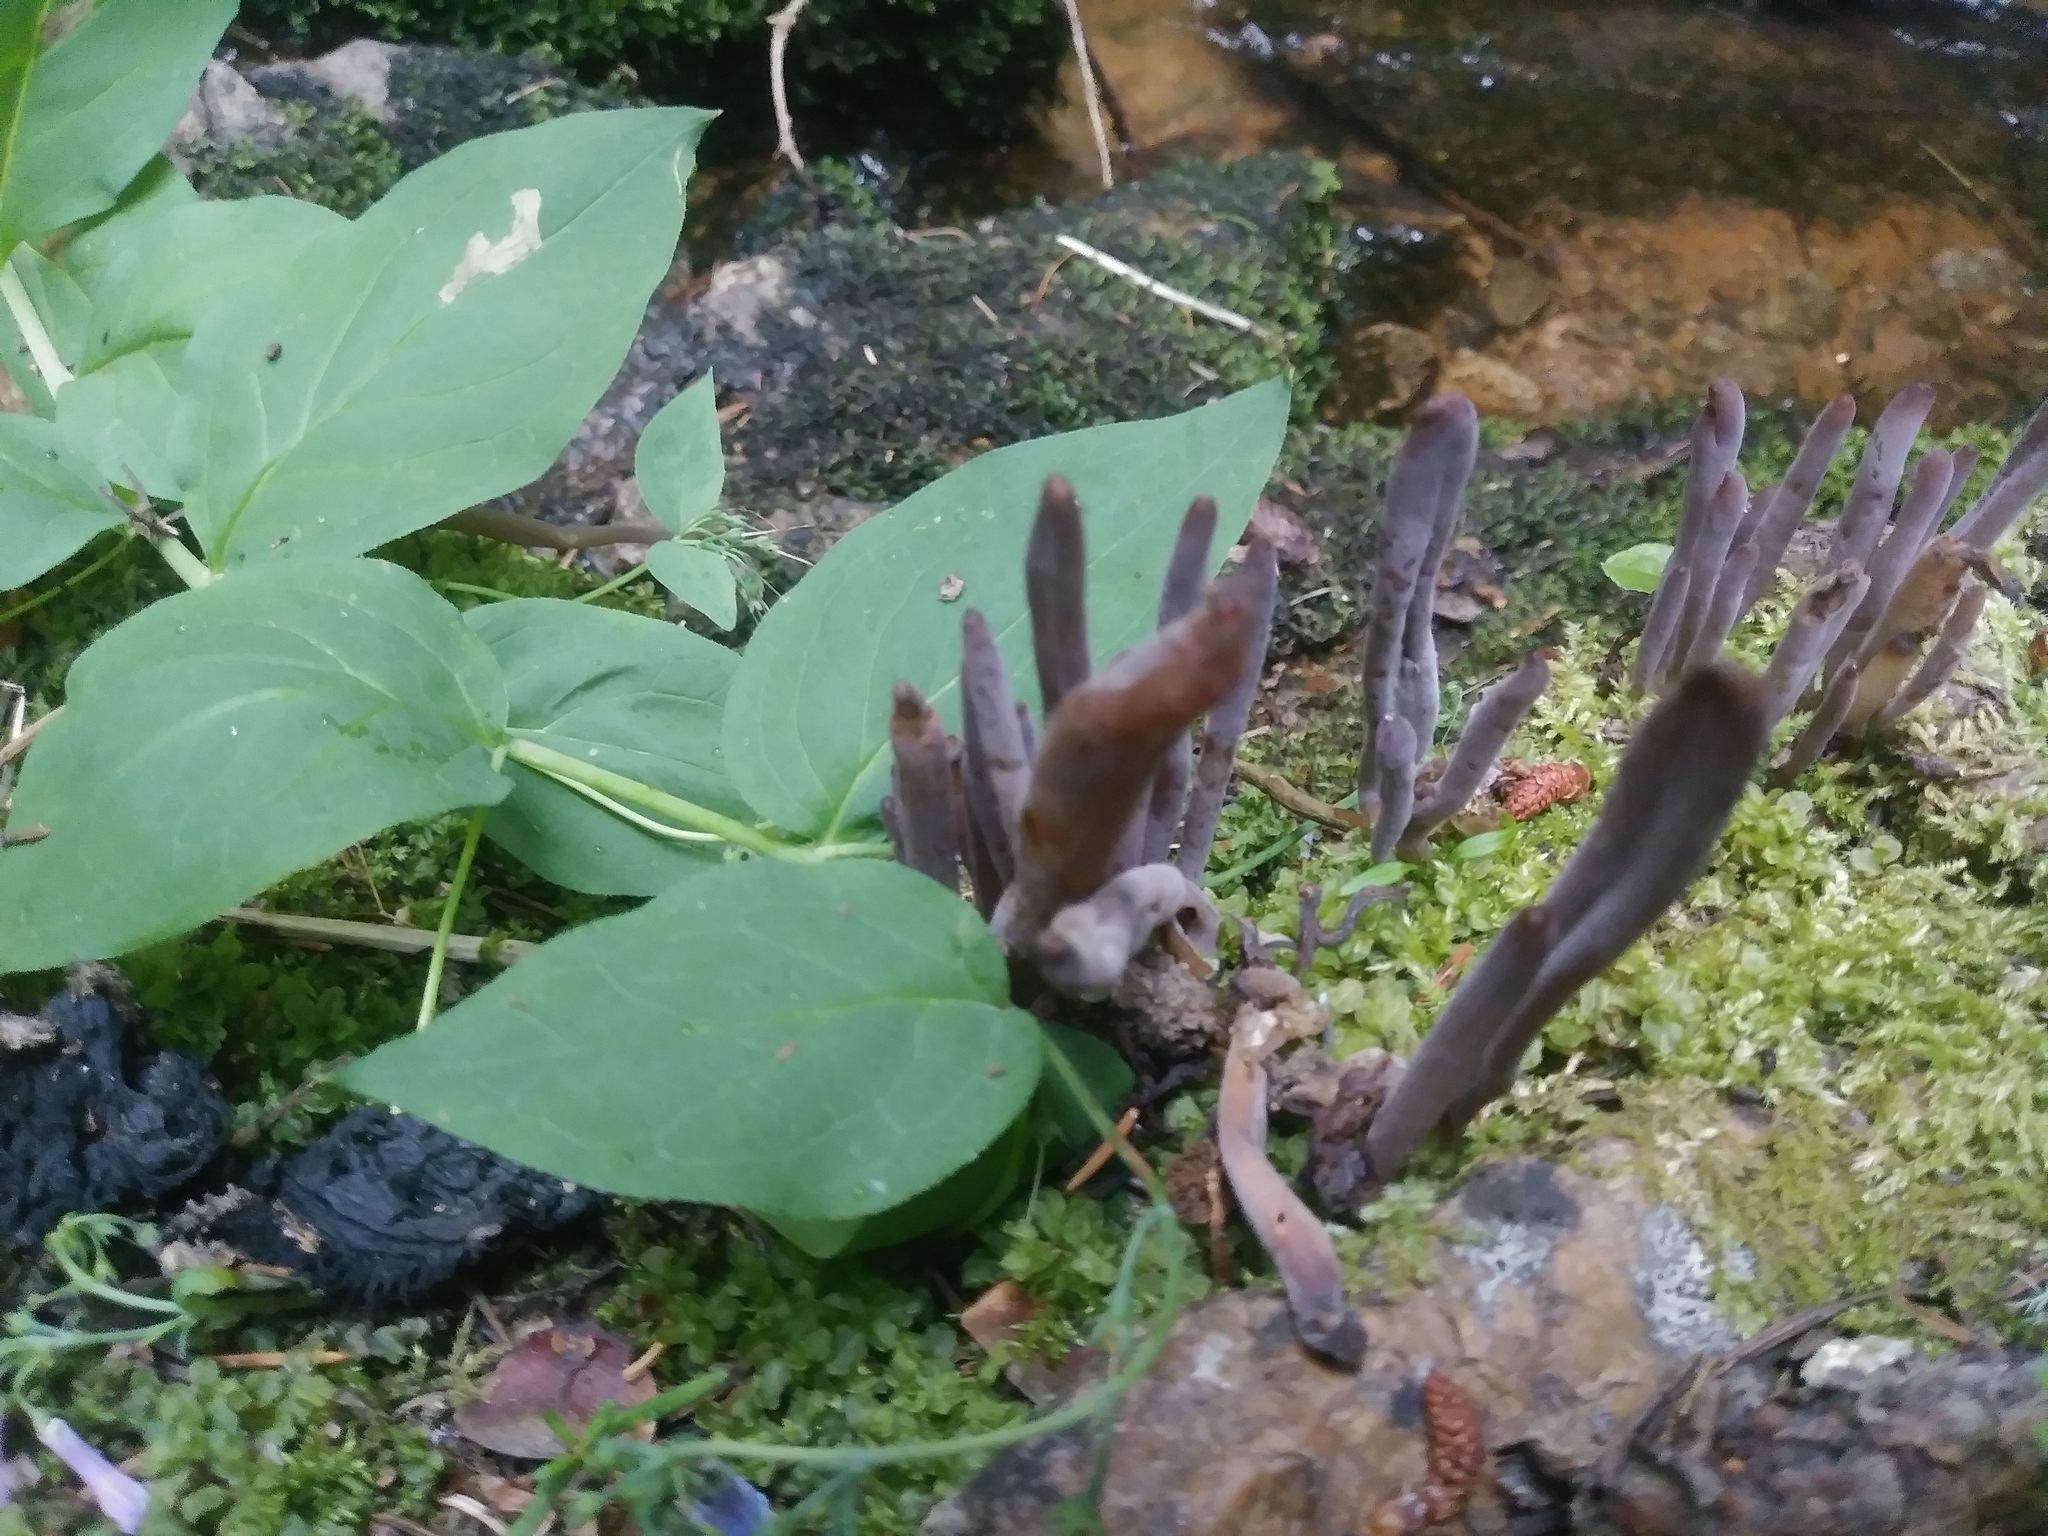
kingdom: Fungi
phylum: Basidiomycota
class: Agaricomycetes
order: Hymenochaetales
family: Rickenellaceae
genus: Alloclavaria
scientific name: Alloclavaria purpurea
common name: Purple spindles
